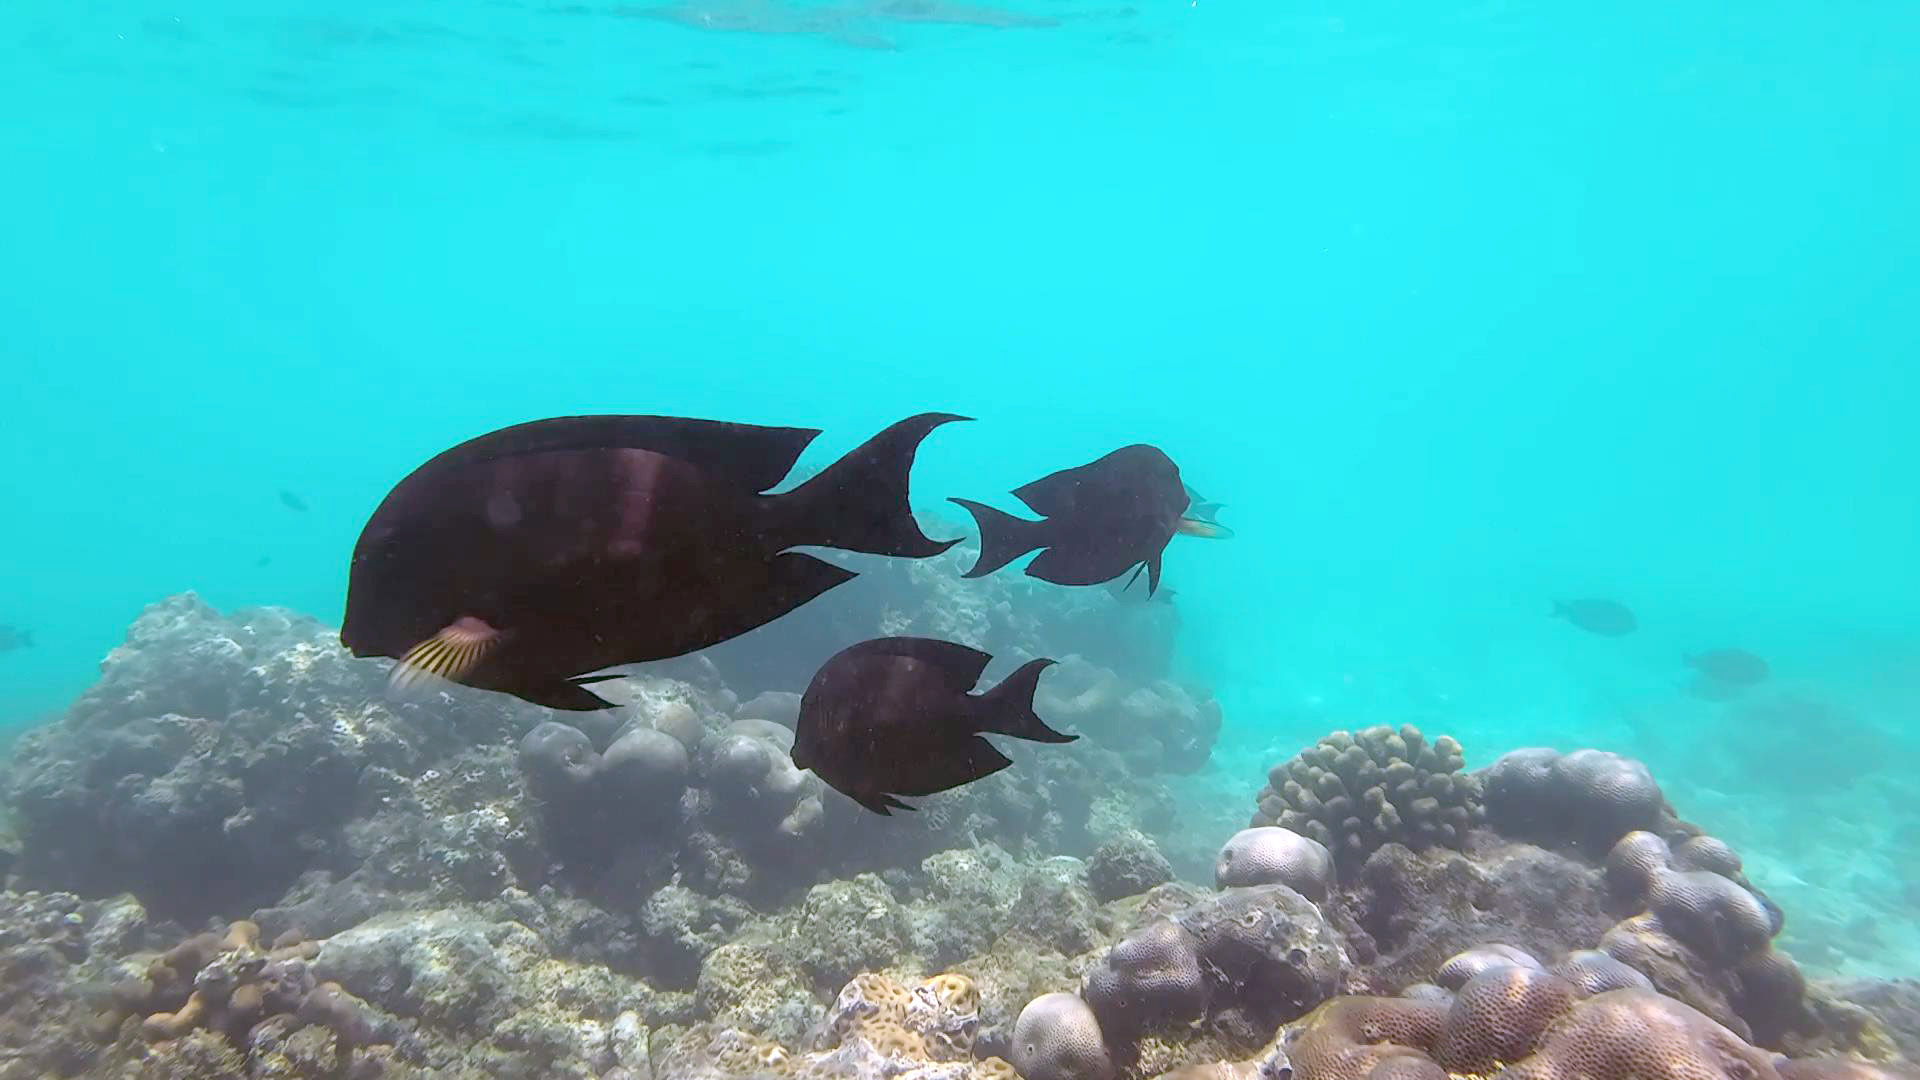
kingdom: Animalia
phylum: Chordata
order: Perciformes
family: Acanthuridae
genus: Ctenochaetus
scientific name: Ctenochaetus striatus
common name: Bristle-toothed surgeonfish
